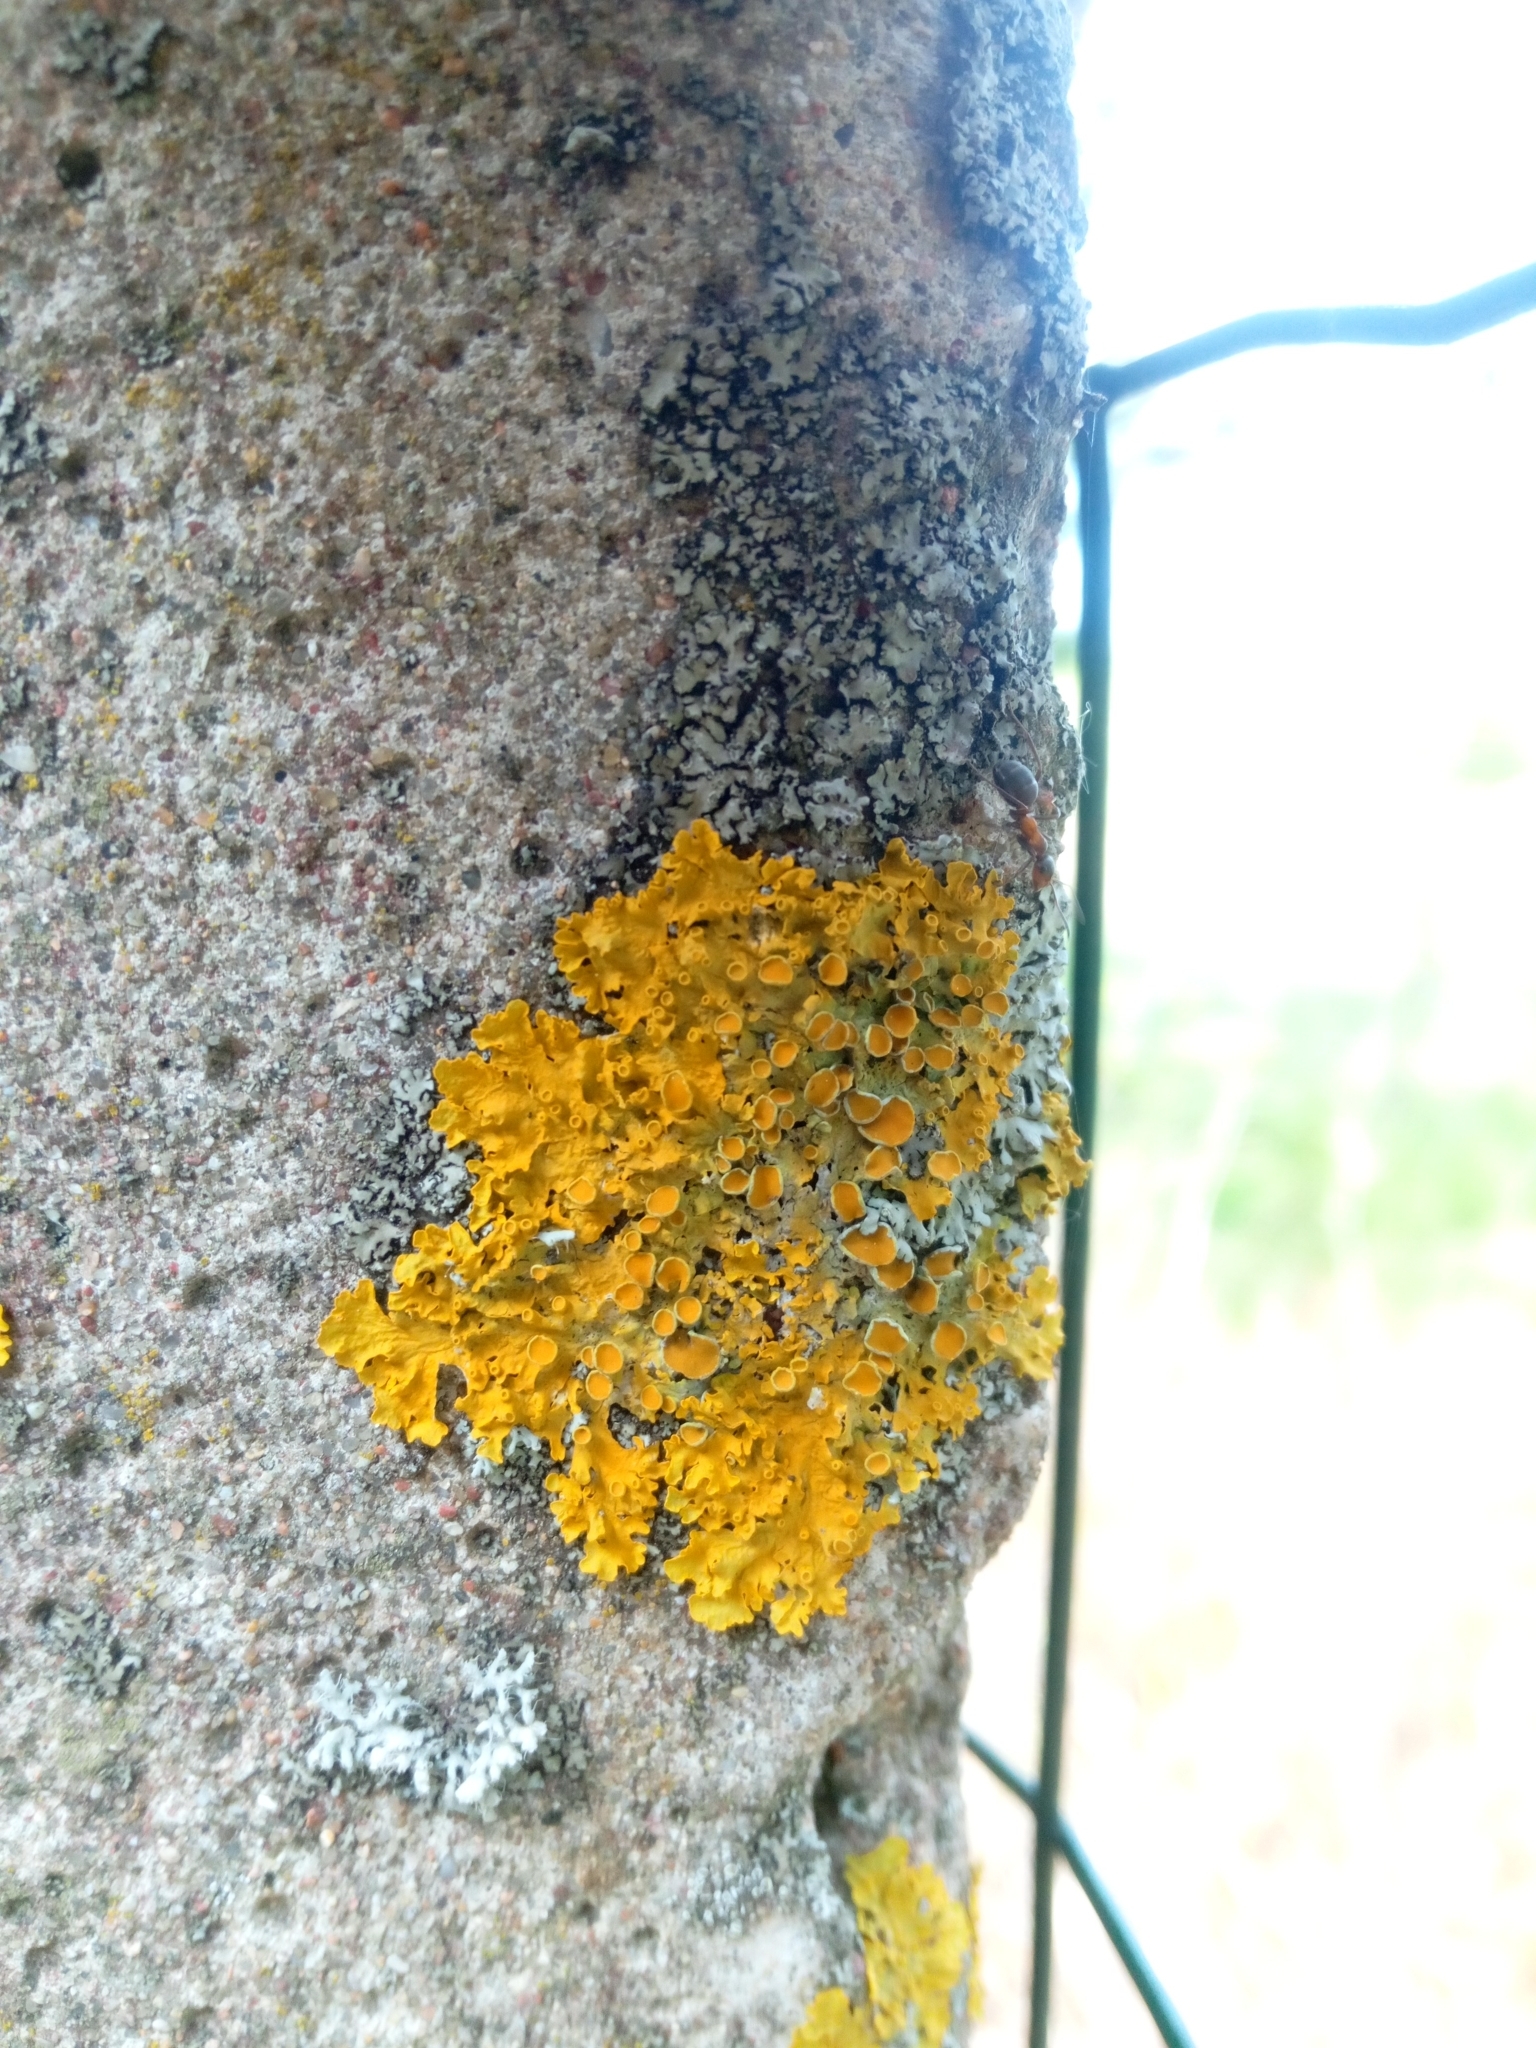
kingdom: Fungi
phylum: Ascomycota
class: Lecanoromycetes
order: Teloschistales
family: Teloschistaceae
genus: Xanthoria
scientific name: Xanthoria parietina
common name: Common orange lichen
